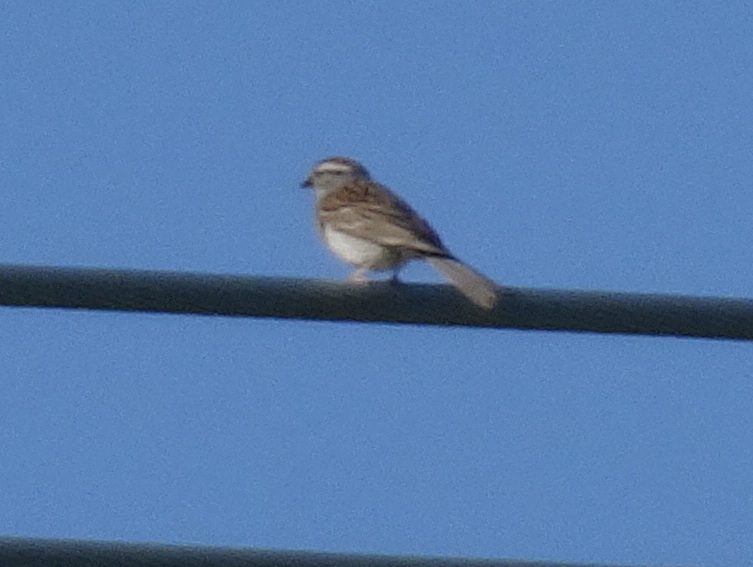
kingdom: Animalia
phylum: Chordata
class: Aves
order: Passeriformes
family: Passerellidae
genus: Spizella
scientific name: Spizella passerina
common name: Chipping sparrow
